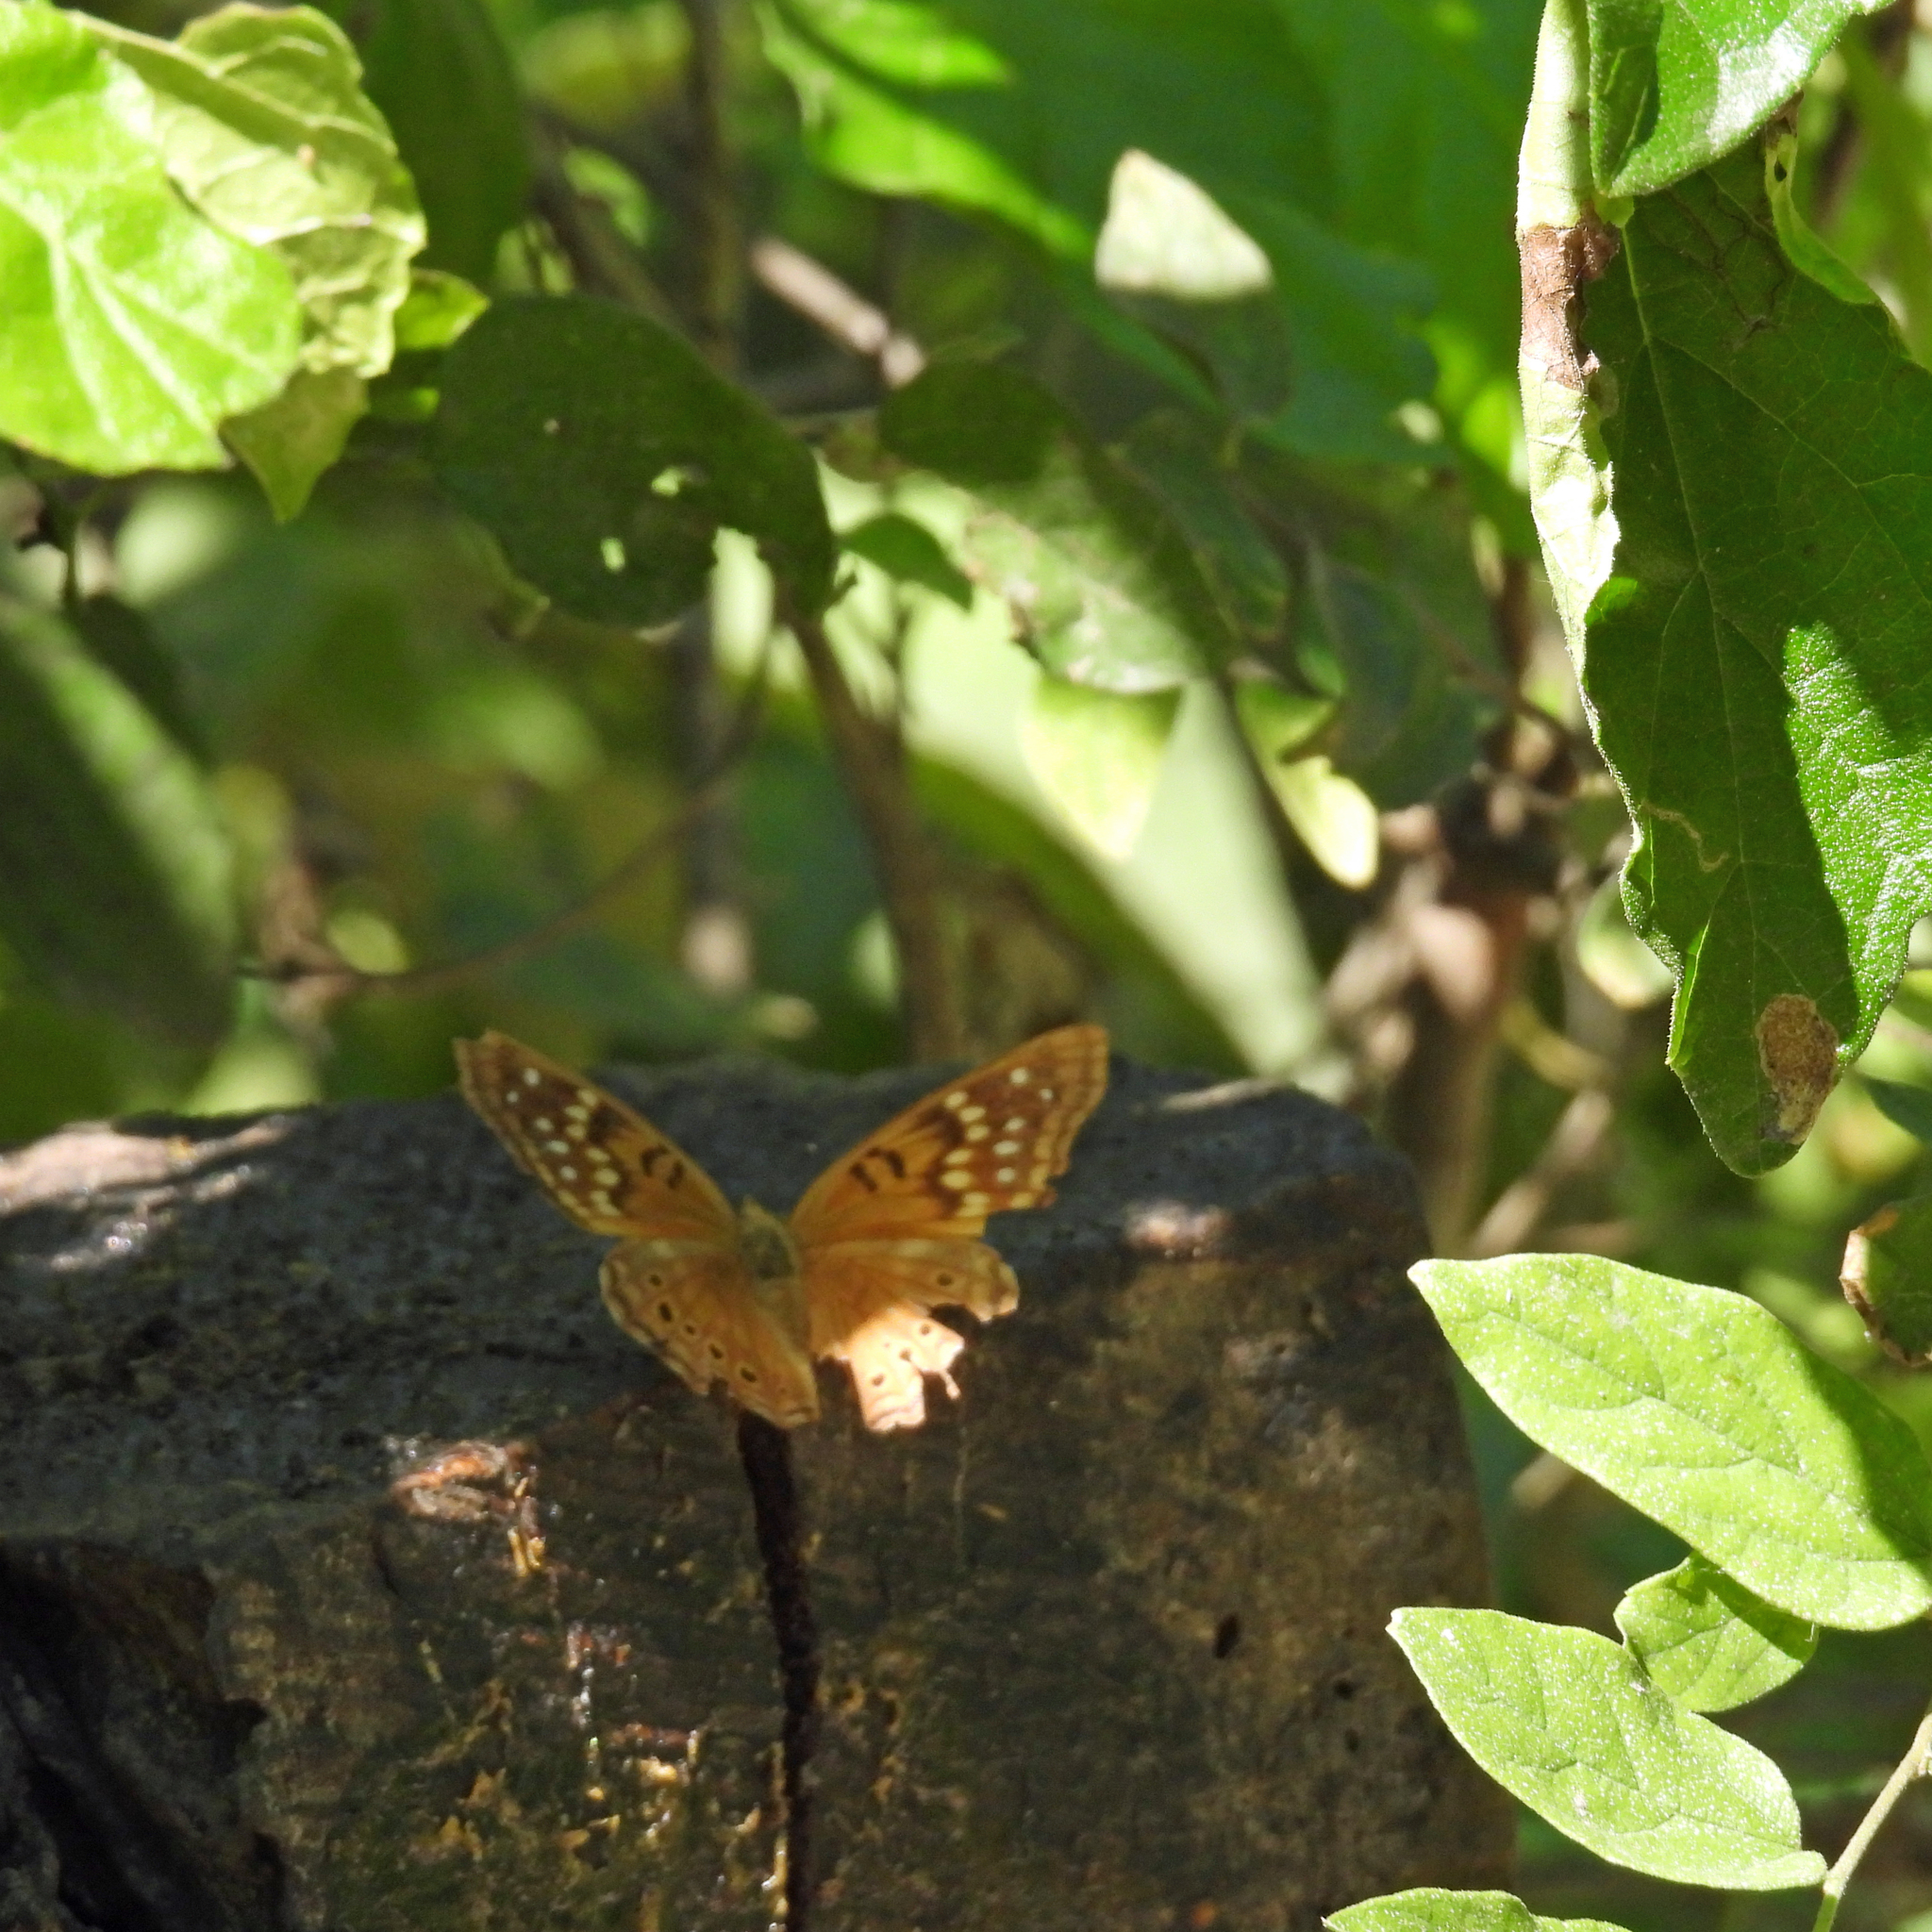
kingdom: Animalia
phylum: Arthropoda
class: Insecta
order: Lepidoptera
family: Nymphalidae
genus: Asterocampa
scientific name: Asterocampa clyton
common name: Tawny emperor
